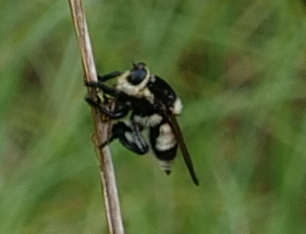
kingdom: Animalia
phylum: Arthropoda
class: Insecta
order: Diptera
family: Asilidae
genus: Mallophora
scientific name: Mallophora bomboides
